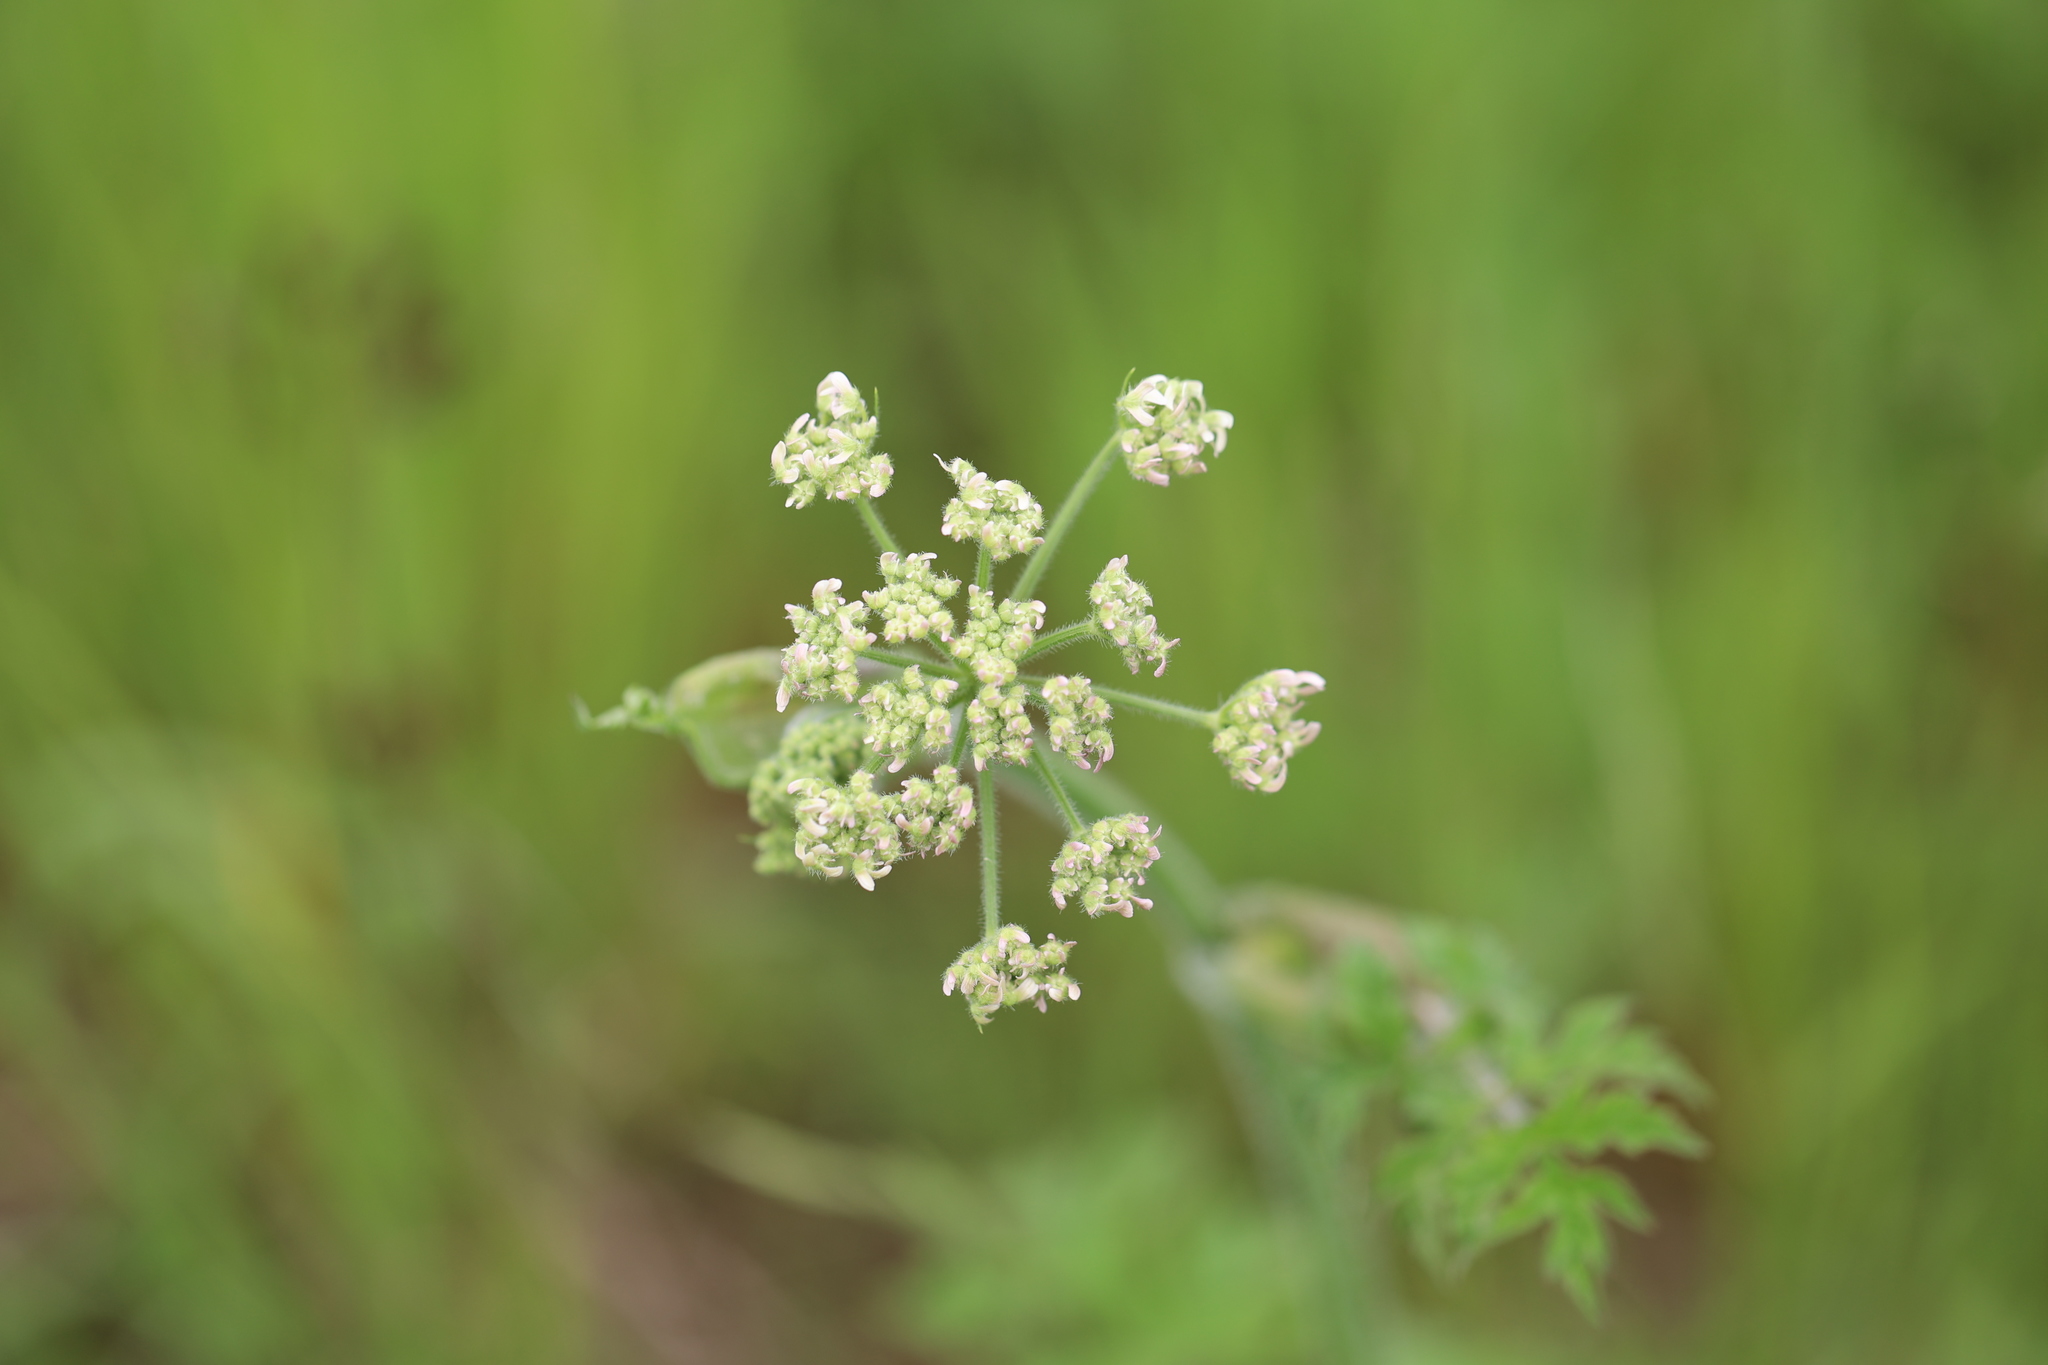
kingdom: Plantae
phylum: Tracheophyta
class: Magnoliopsida
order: Apiales
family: Apiaceae
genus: Anthriscus
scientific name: Anthriscus sylvestris
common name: Cow parsley
